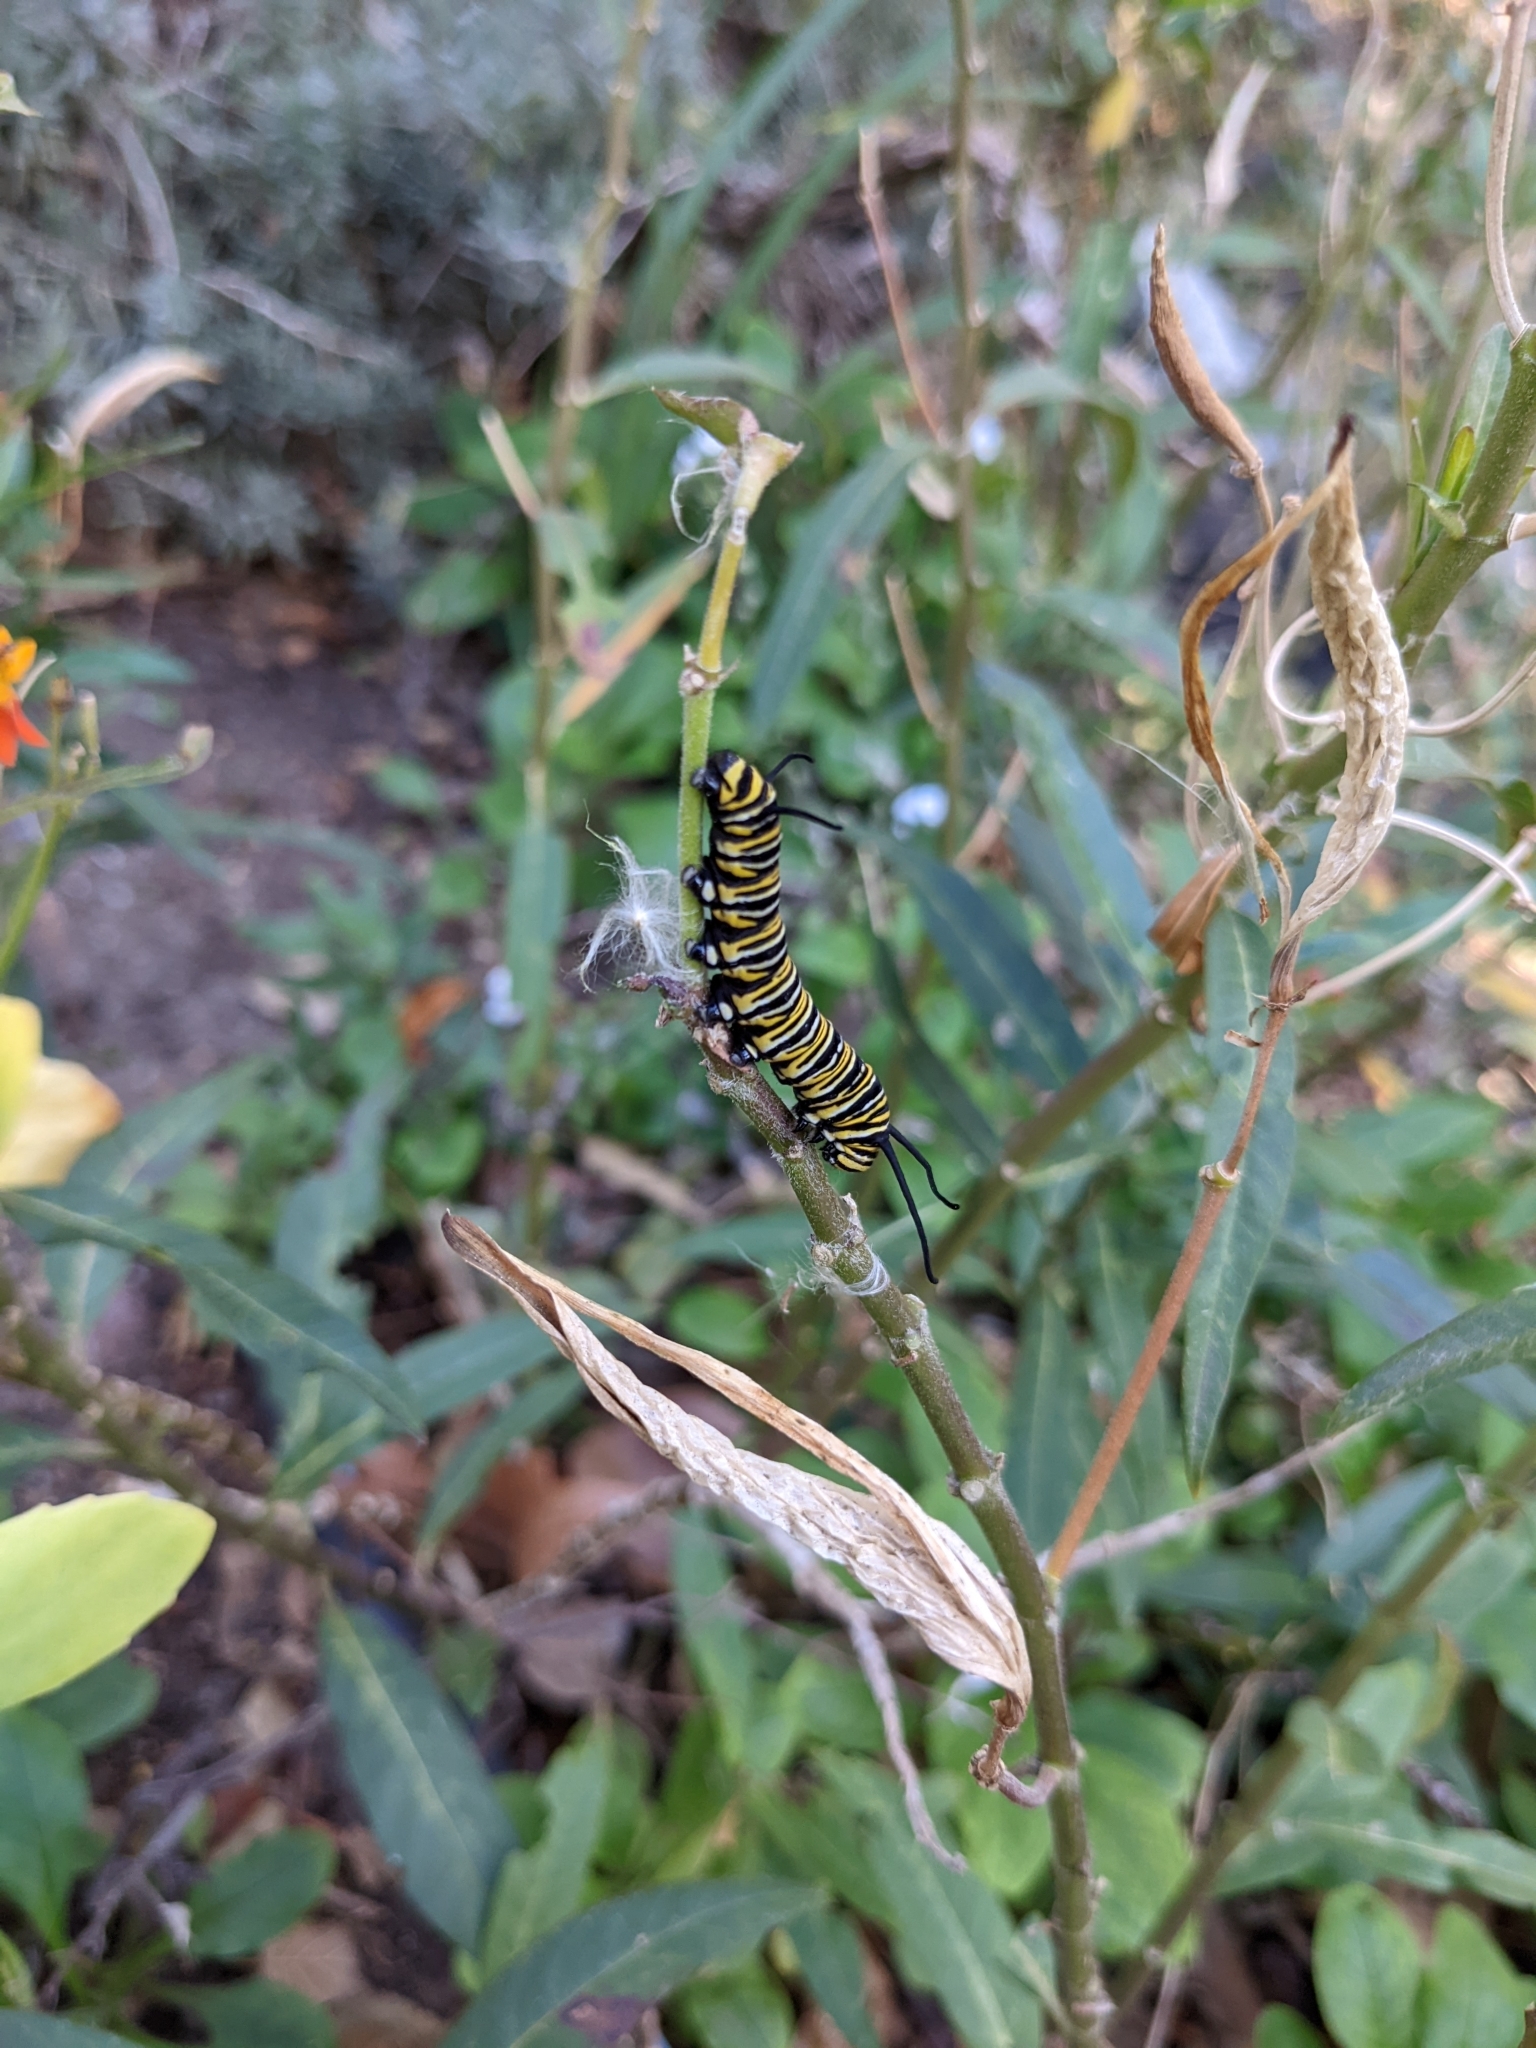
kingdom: Animalia
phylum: Arthropoda
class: Insecta
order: Lepidoptera
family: Nymphalidae
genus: Danaus
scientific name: Danaus plexippus
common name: Monarch
